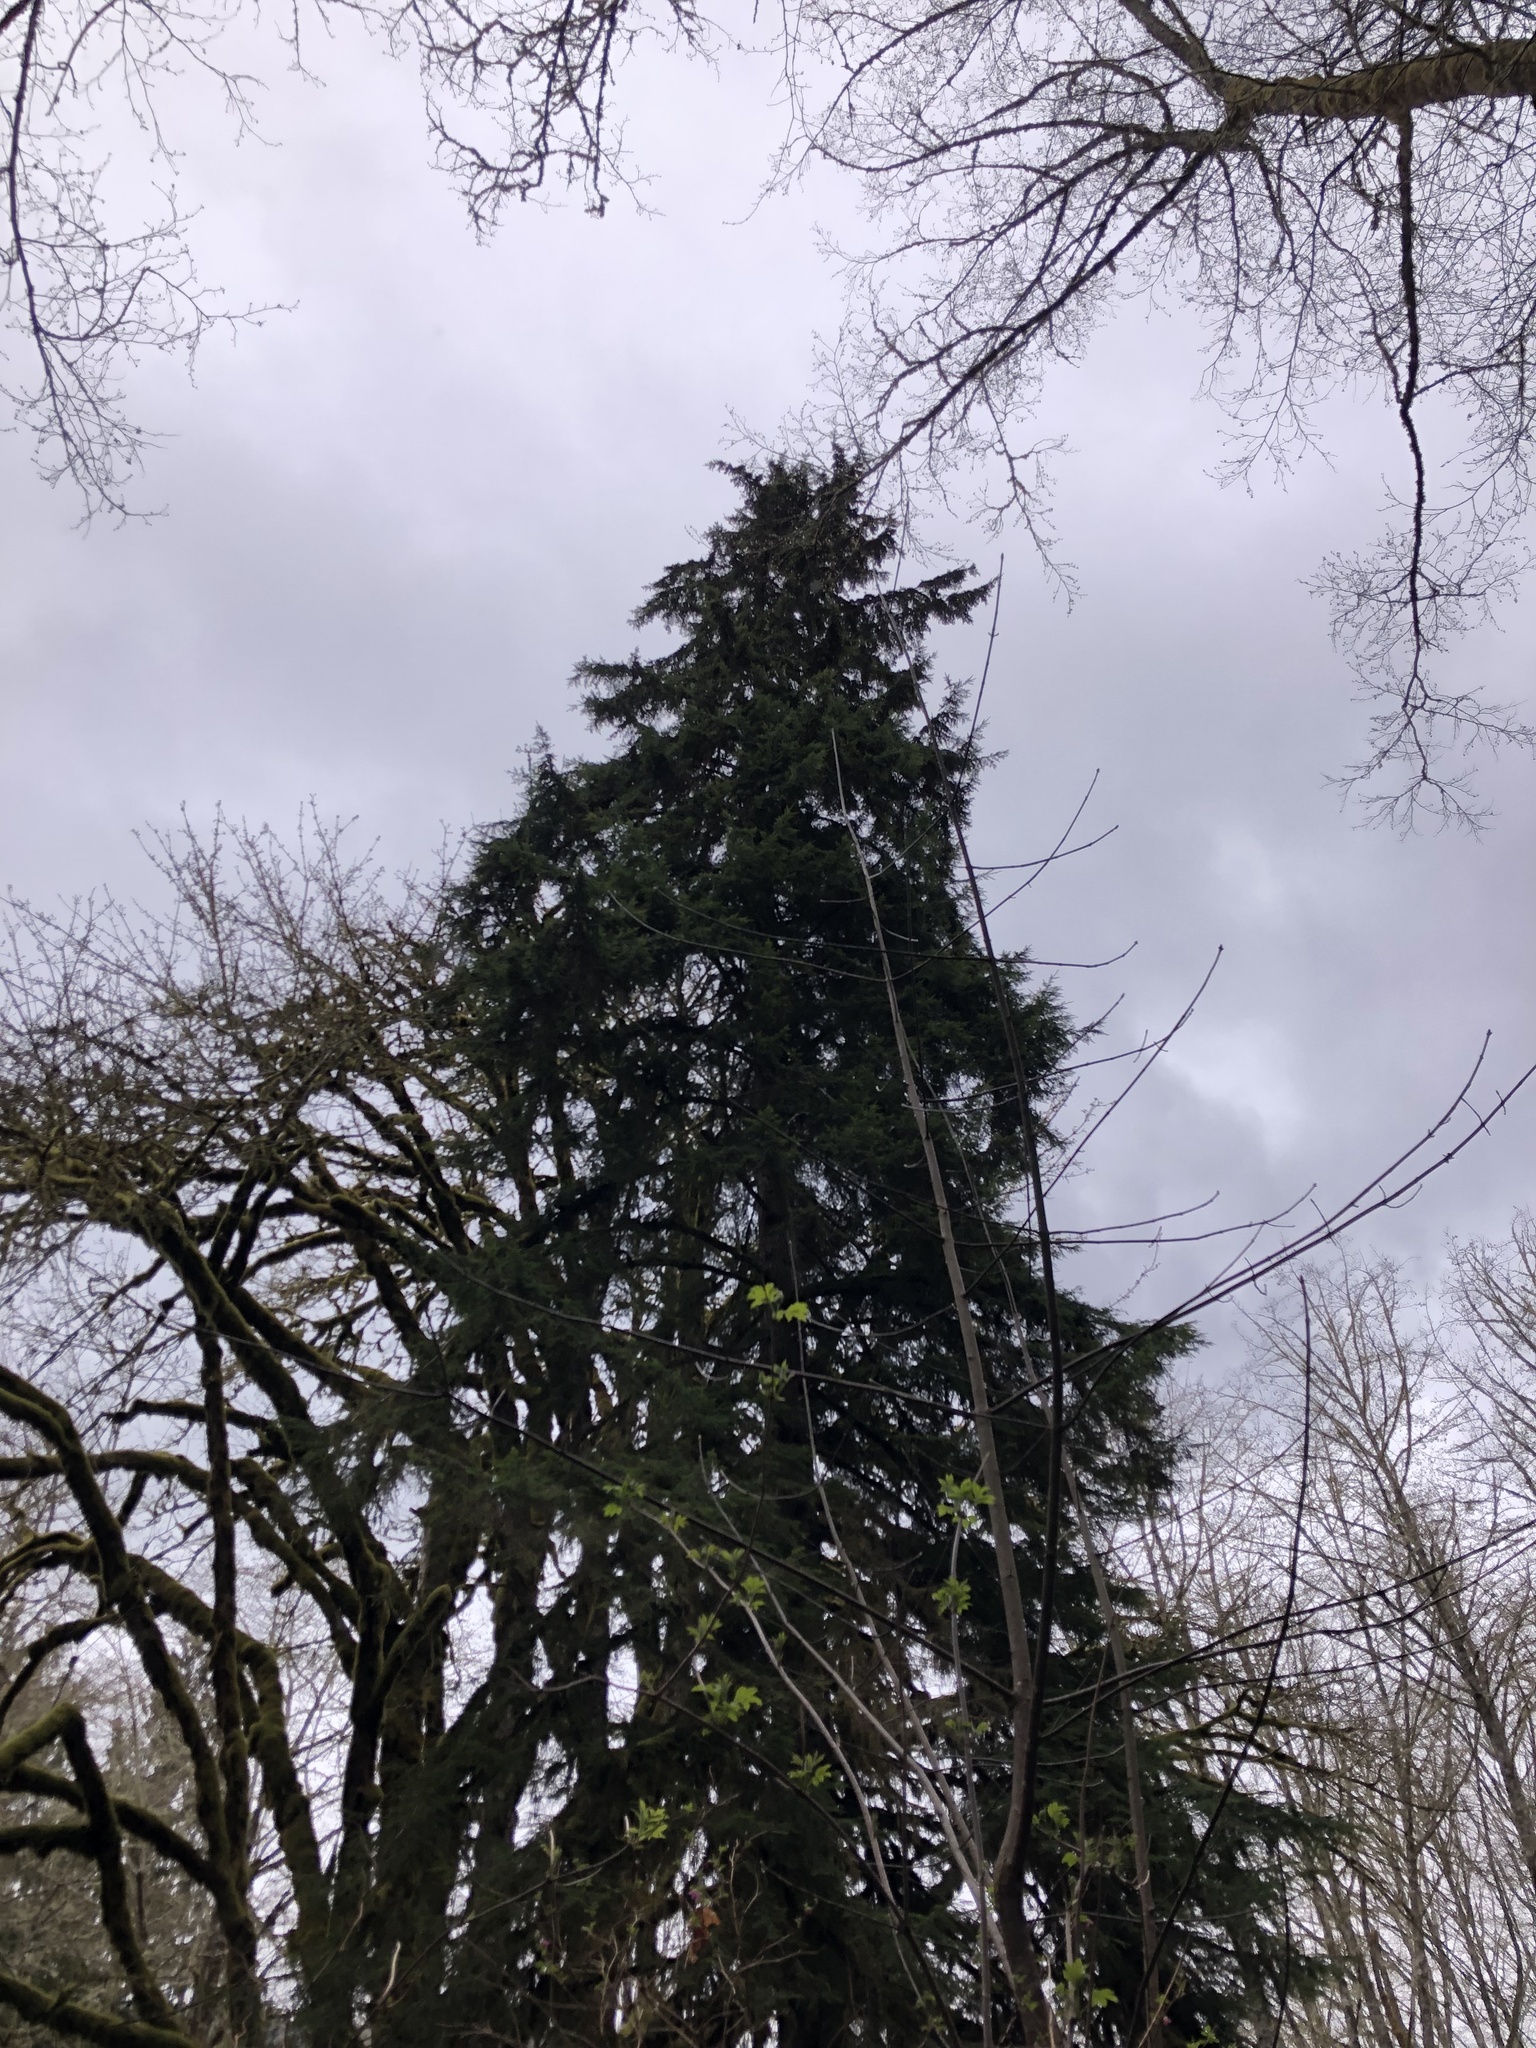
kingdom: Plantae
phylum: Tracheophyta
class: Pinopsida
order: Pinales
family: Pinaceae
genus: Tsuga
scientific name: Tsuga heterophylla
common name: Western hemlock
